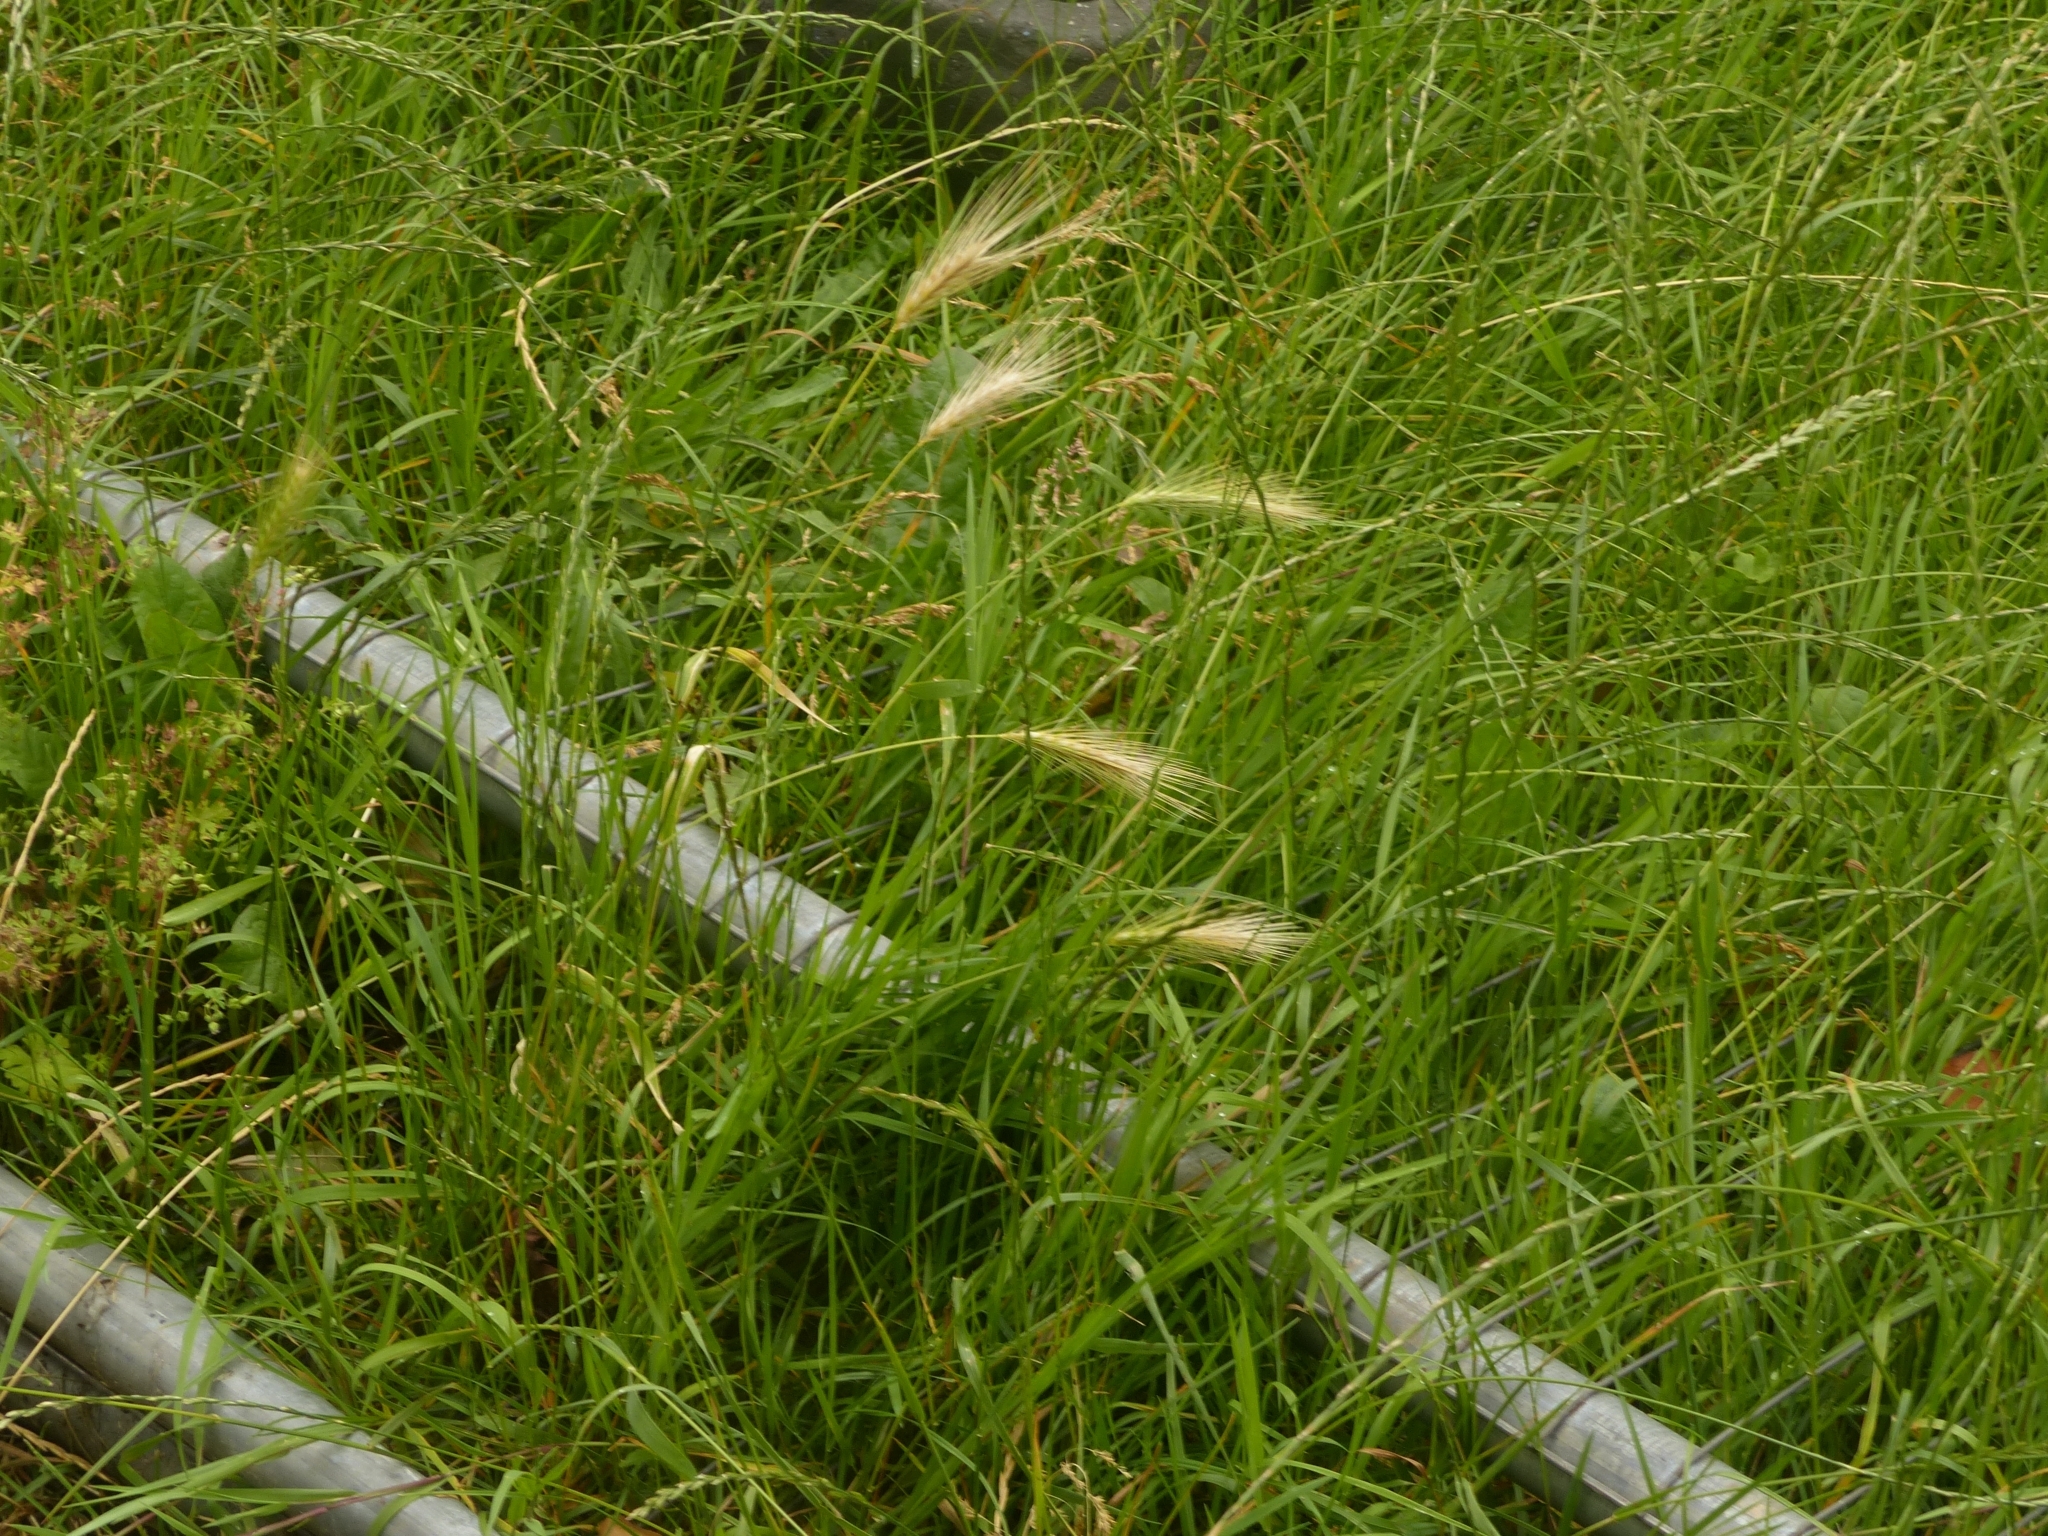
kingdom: Plantae
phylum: Tracheophyta
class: Liliopsida
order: Poales
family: Poaceae
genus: Hordeum
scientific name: Hordeum murinum
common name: Wall barley
